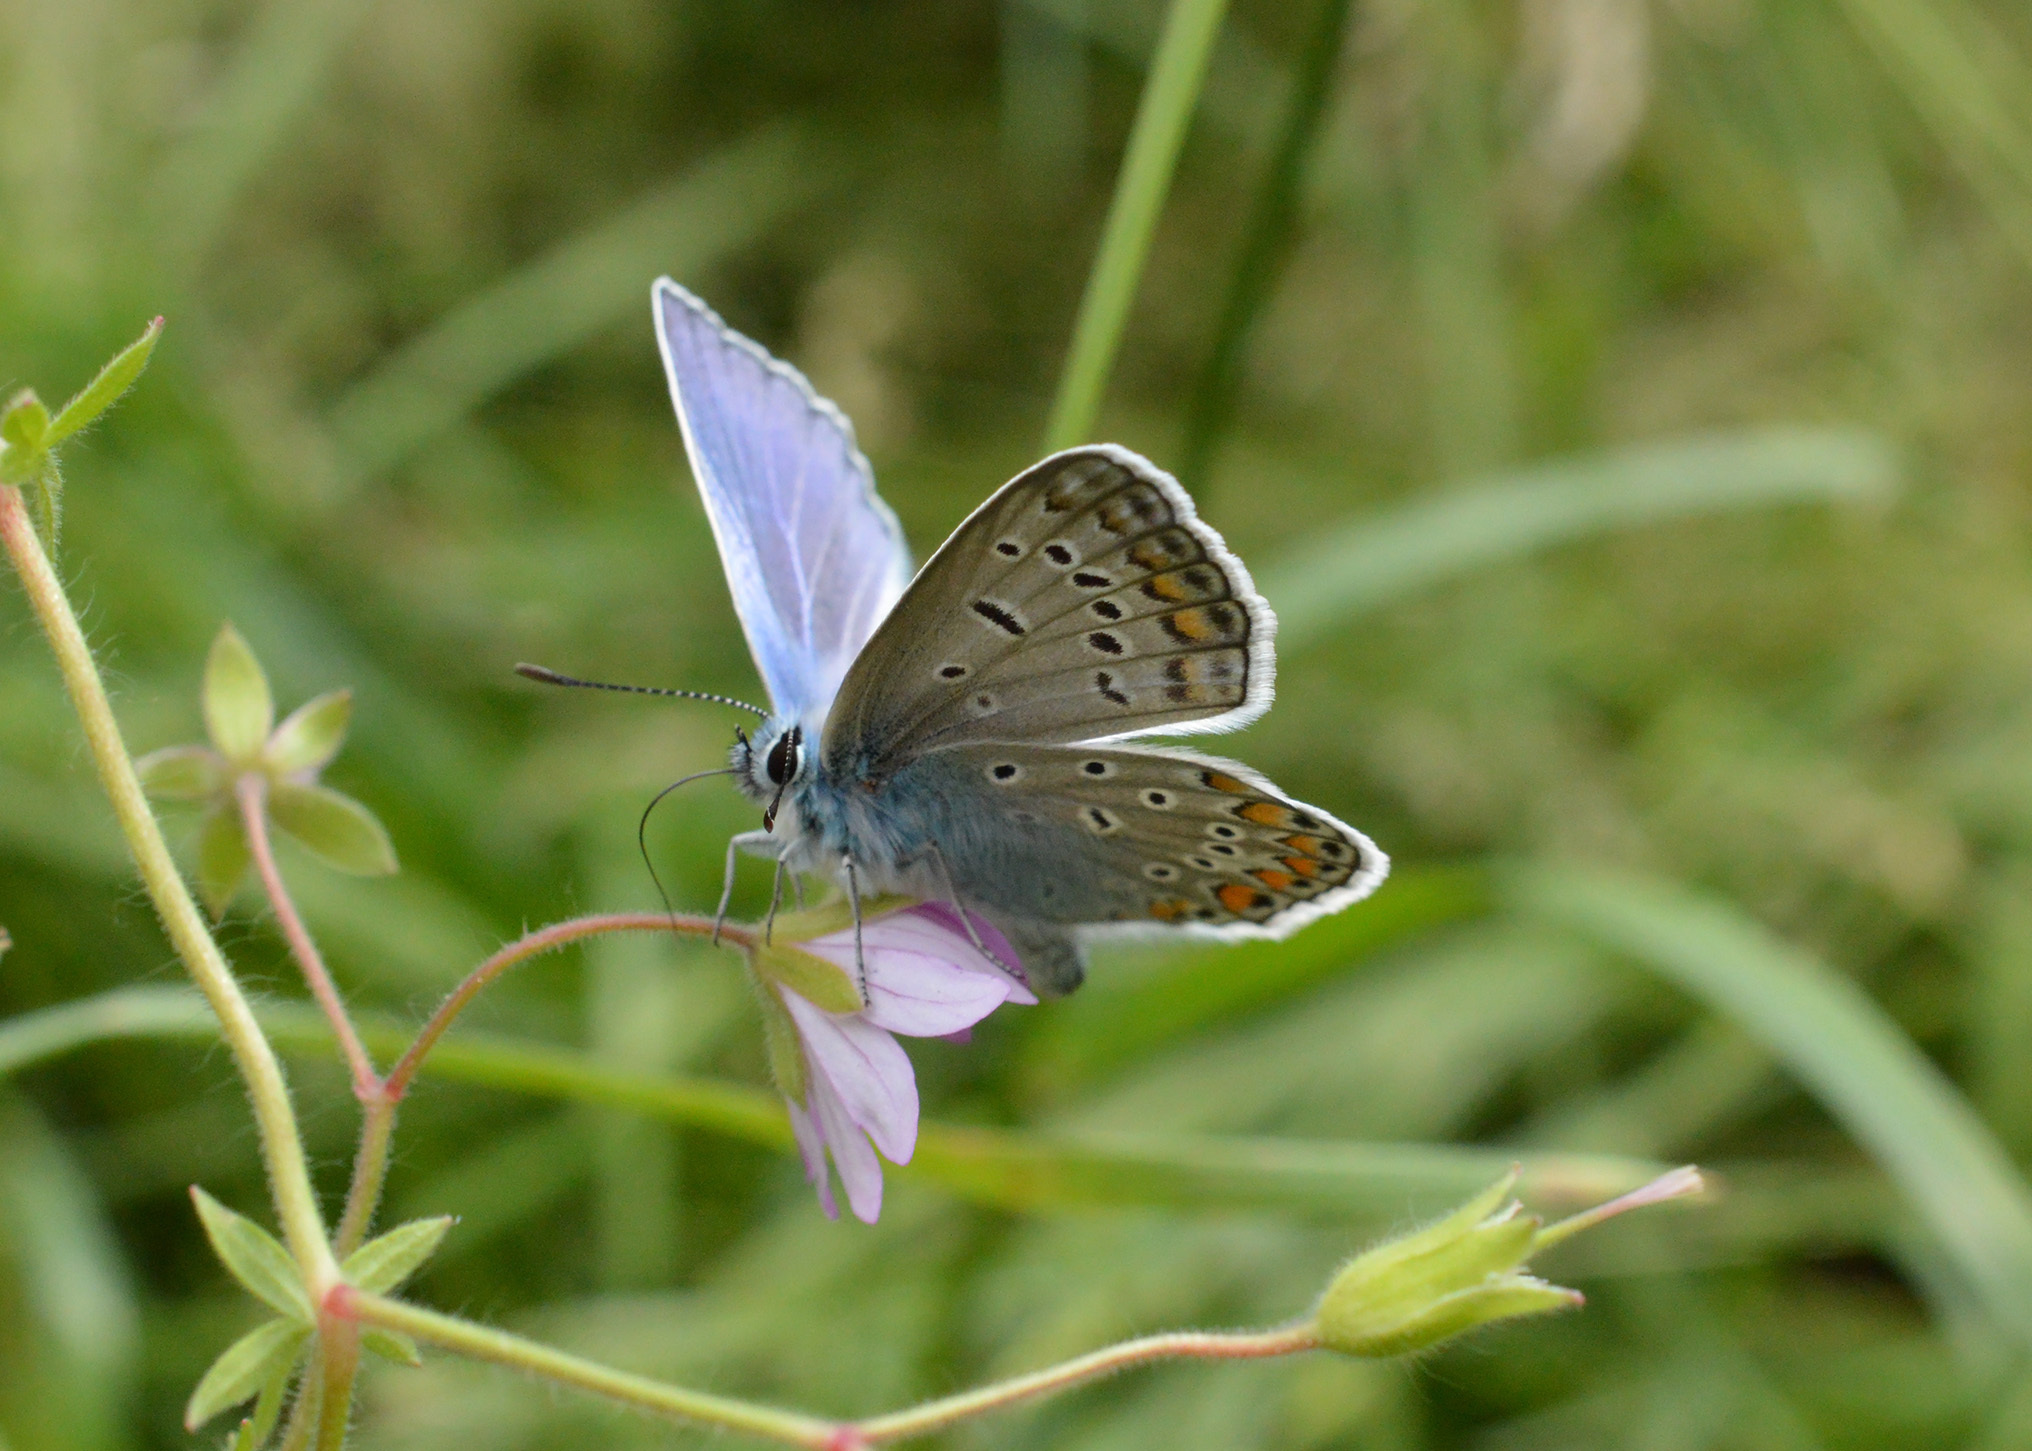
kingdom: Animalia
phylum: Arthropoda
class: Insecta
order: Lepidoptera
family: Lycaenidae
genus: Polyommatus
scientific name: Polyommatus icarus
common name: Common blue
